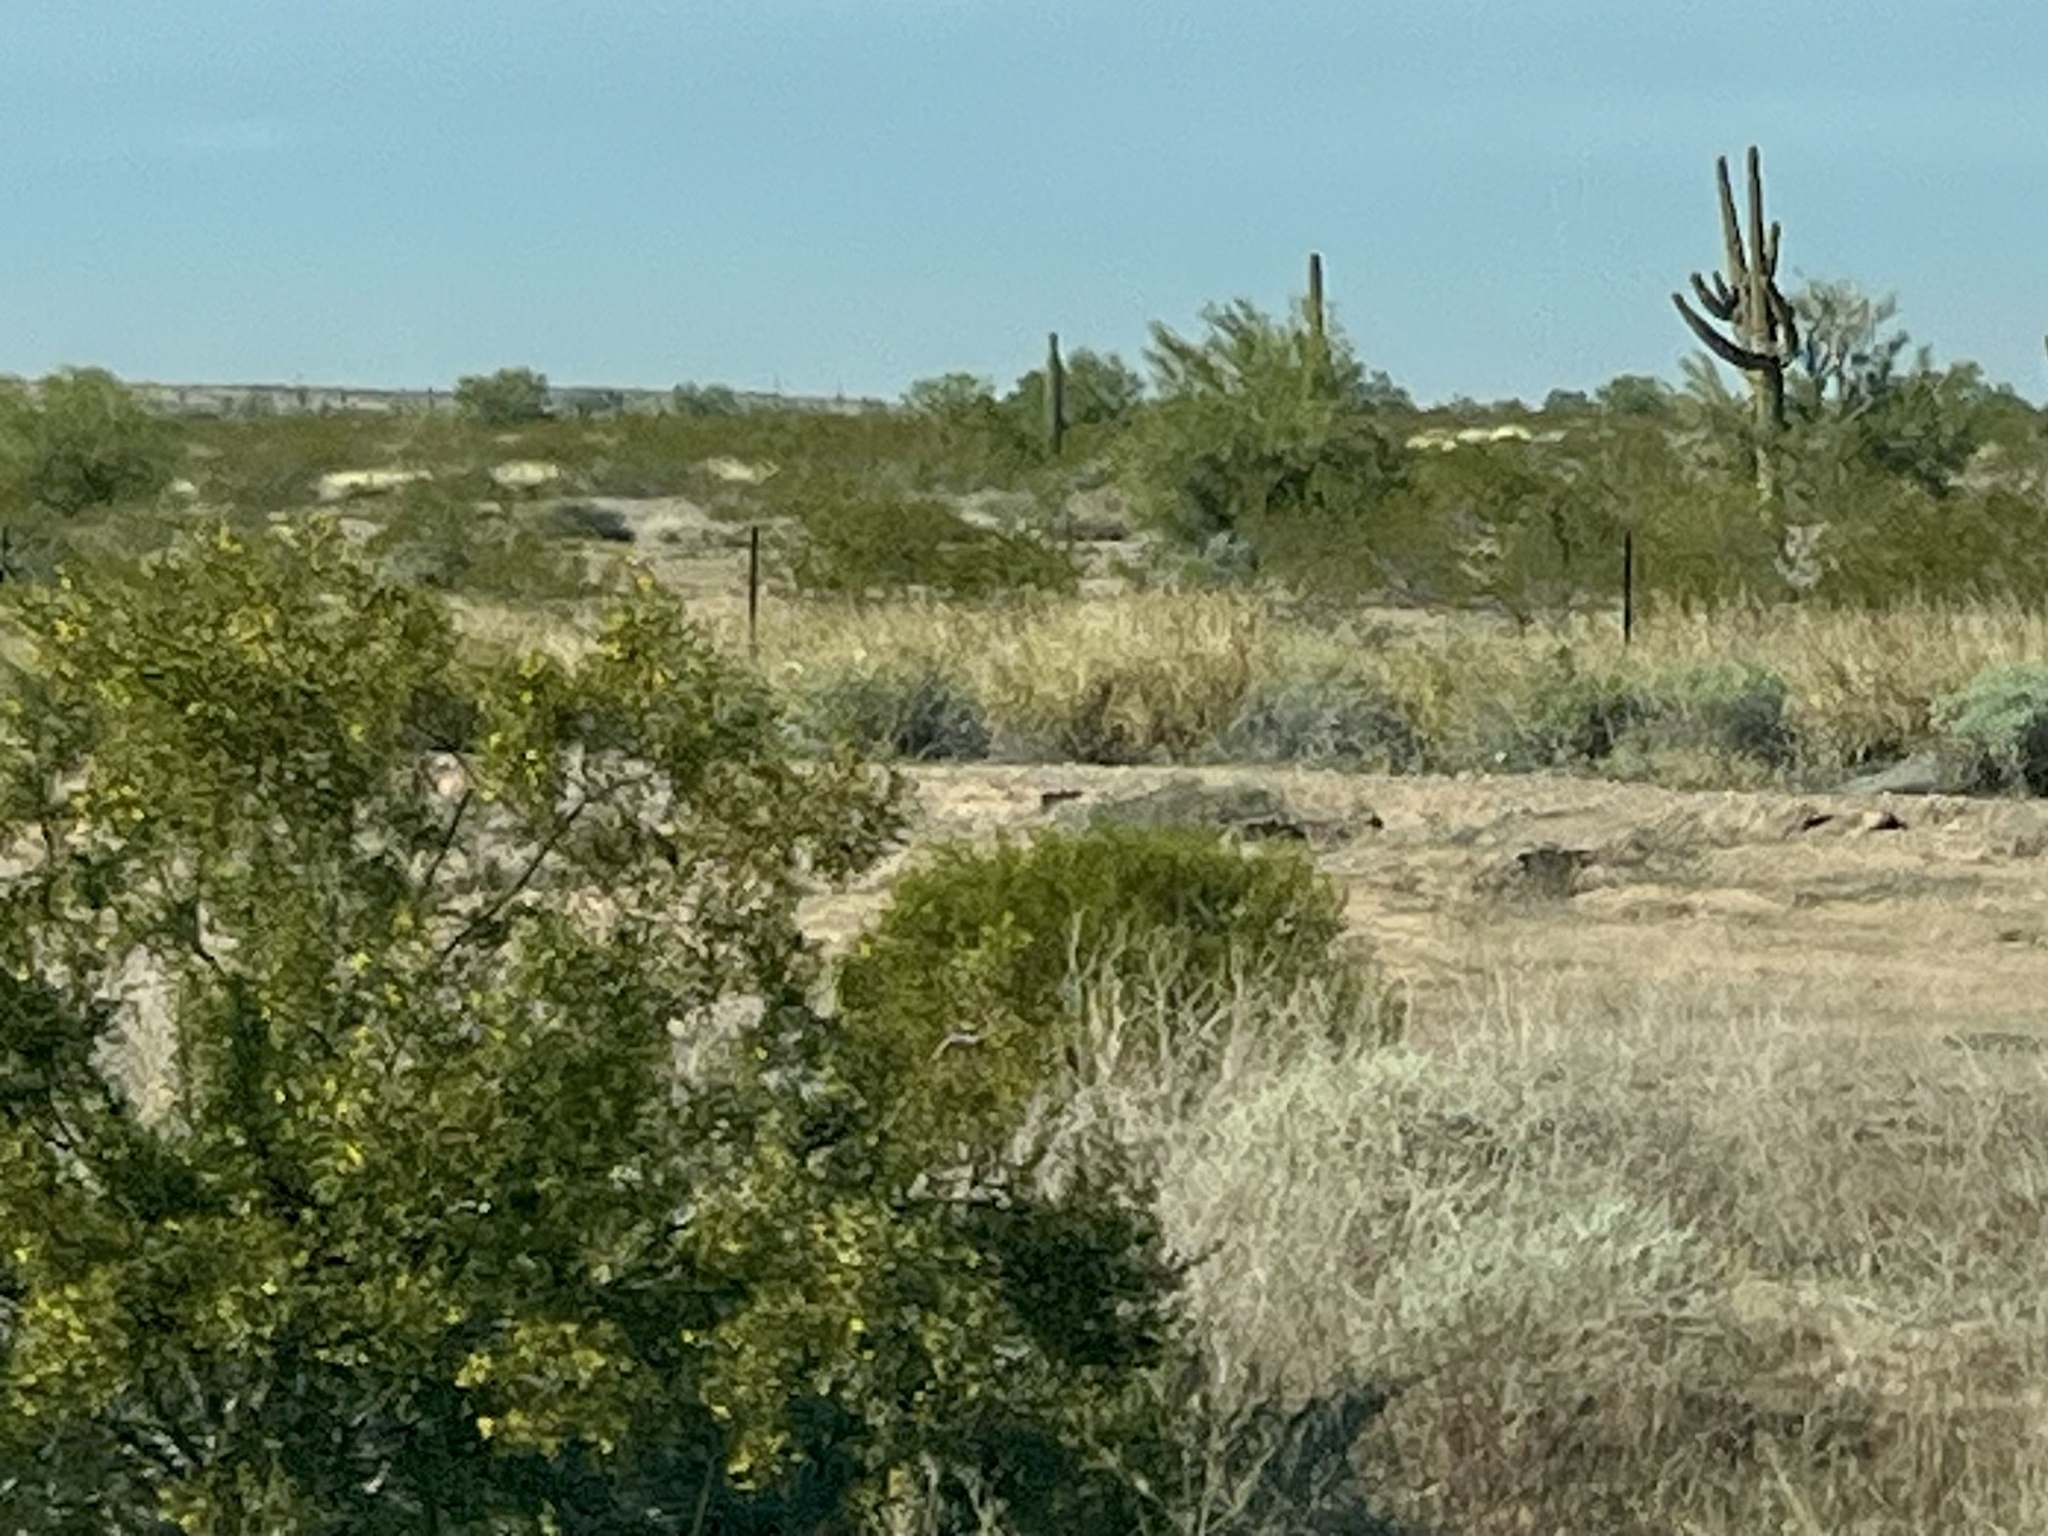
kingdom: Plantae
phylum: Tracheophyta
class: Magnoliopsida
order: Zygophyllales
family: Zygophyllaceae
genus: Larrea
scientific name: Larrea tridentata
